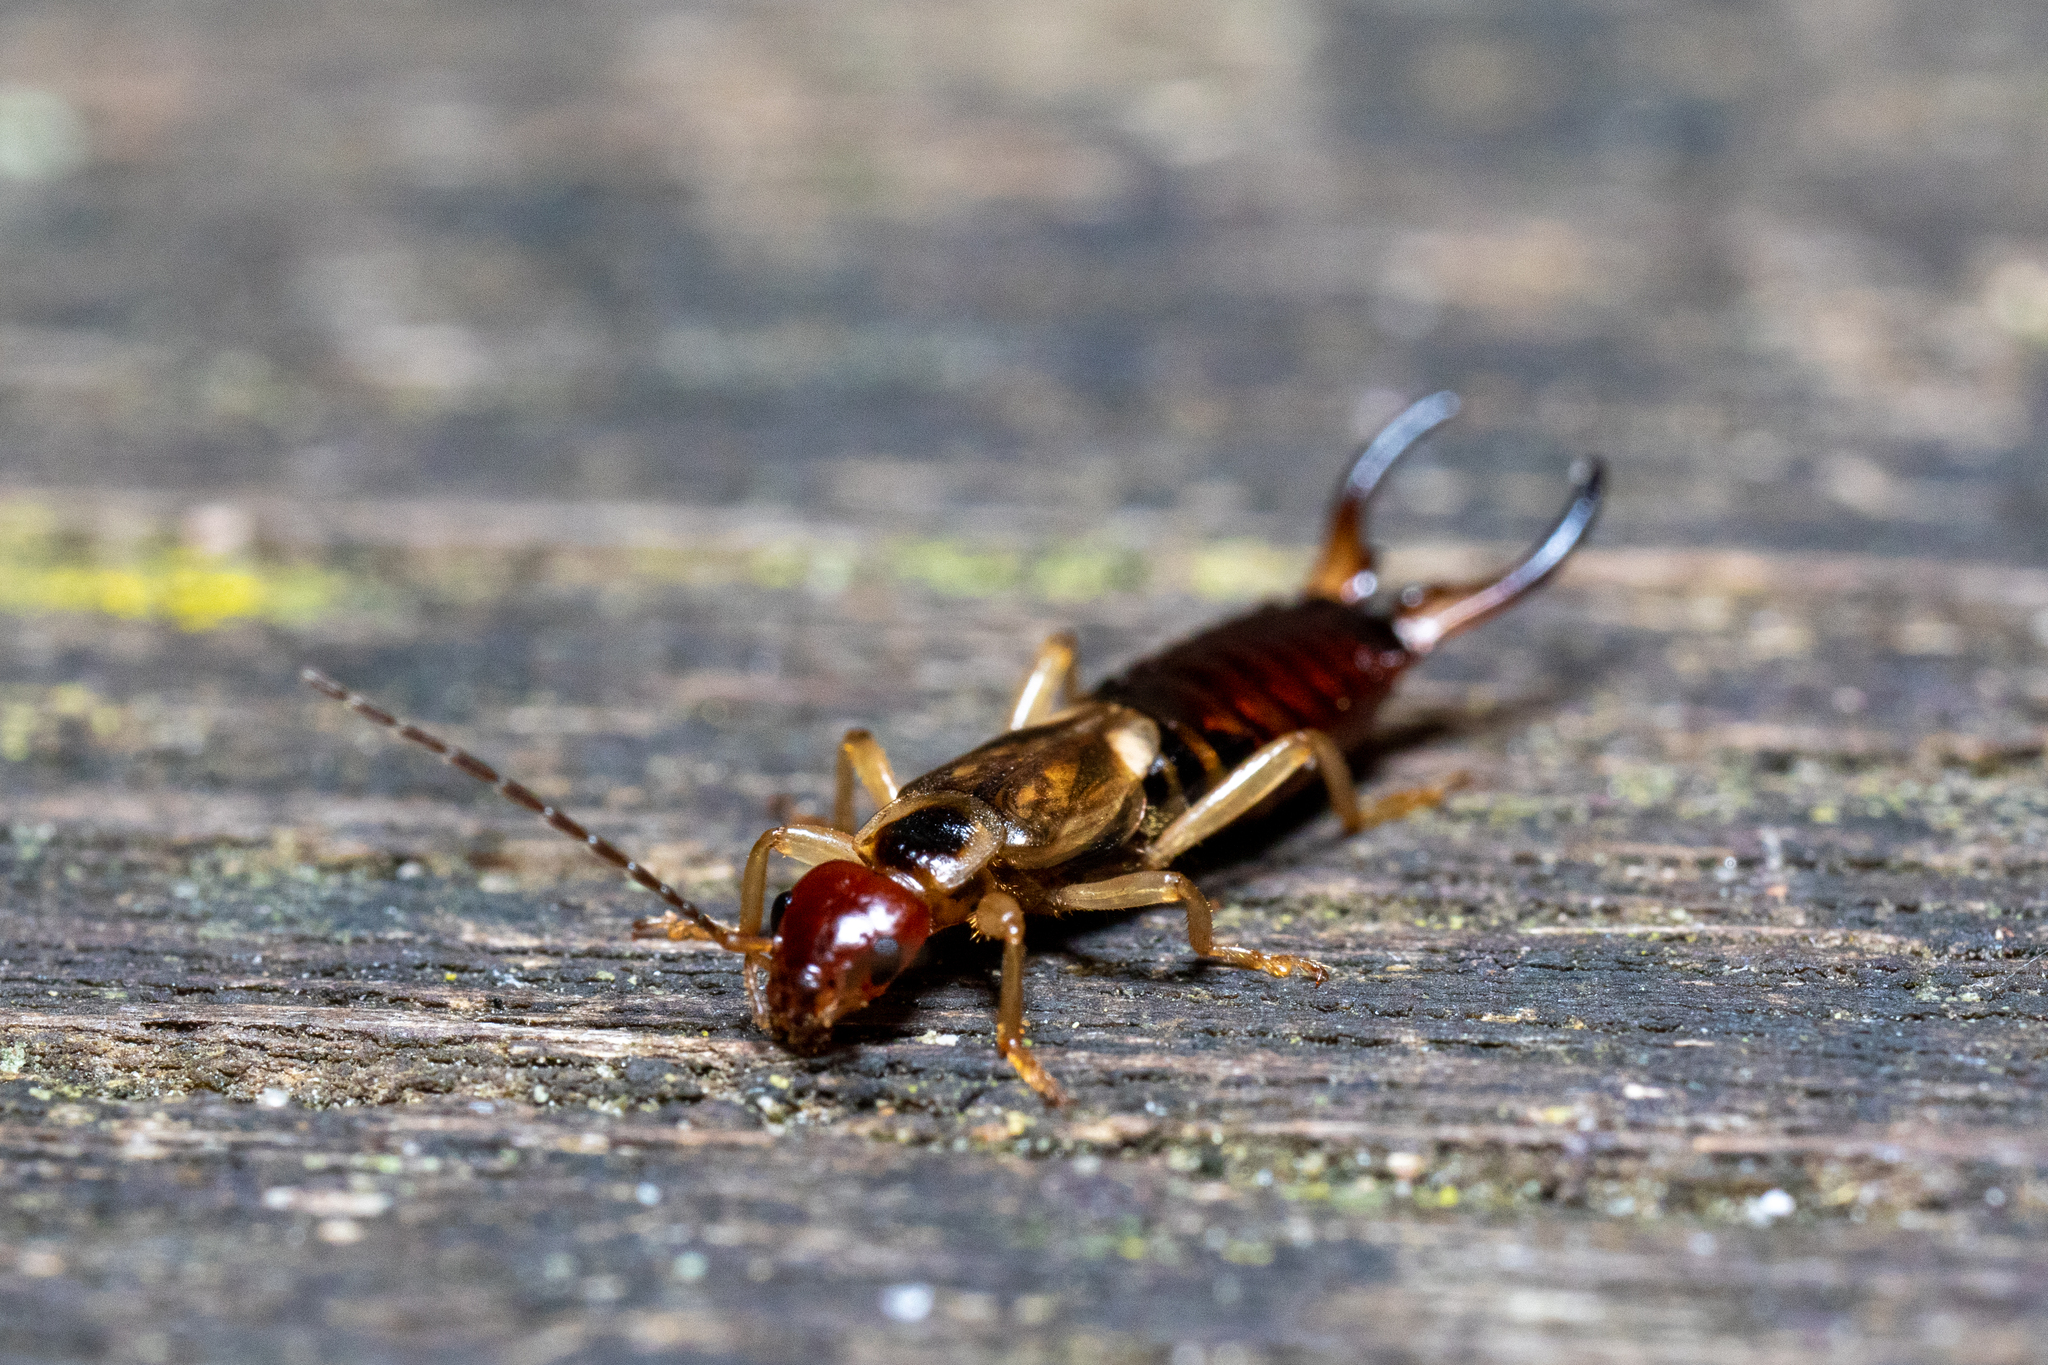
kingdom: Animalia
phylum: Arthropoda
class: Insecta
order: Dermaptera
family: Forficulidae
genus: Forficula
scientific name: Forficula
